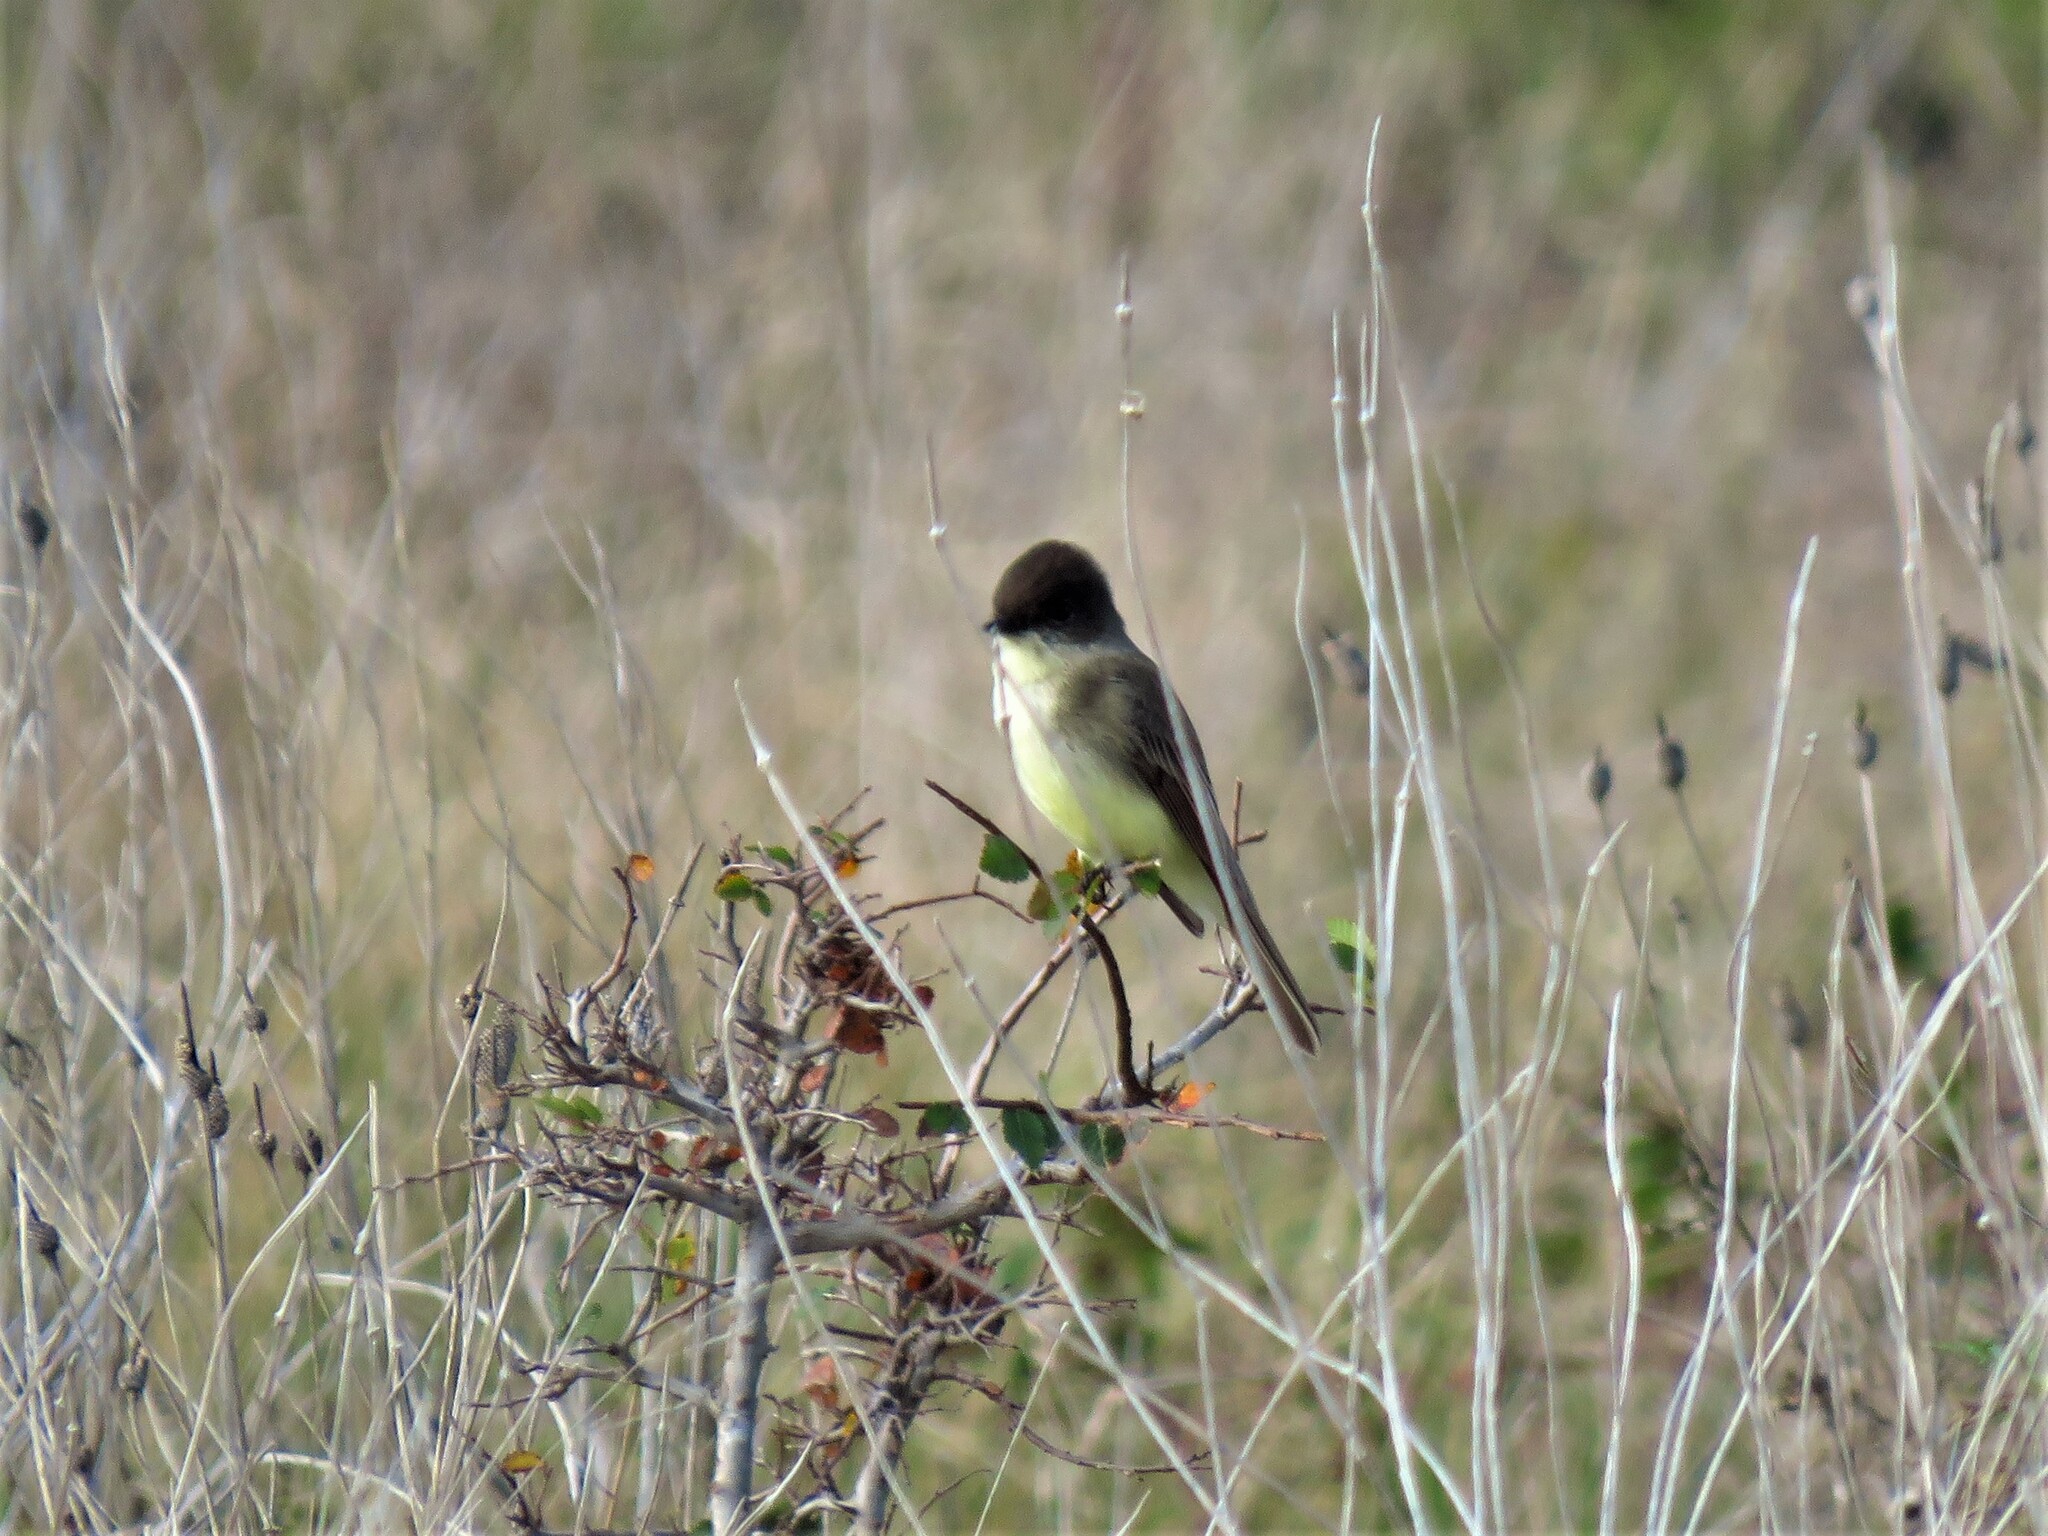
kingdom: Animalia
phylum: Chordata
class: Aves
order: Passeriformes
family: Tyrannidae
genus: Sayornis
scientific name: Sayornis phoebe
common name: Eastern phoebe
